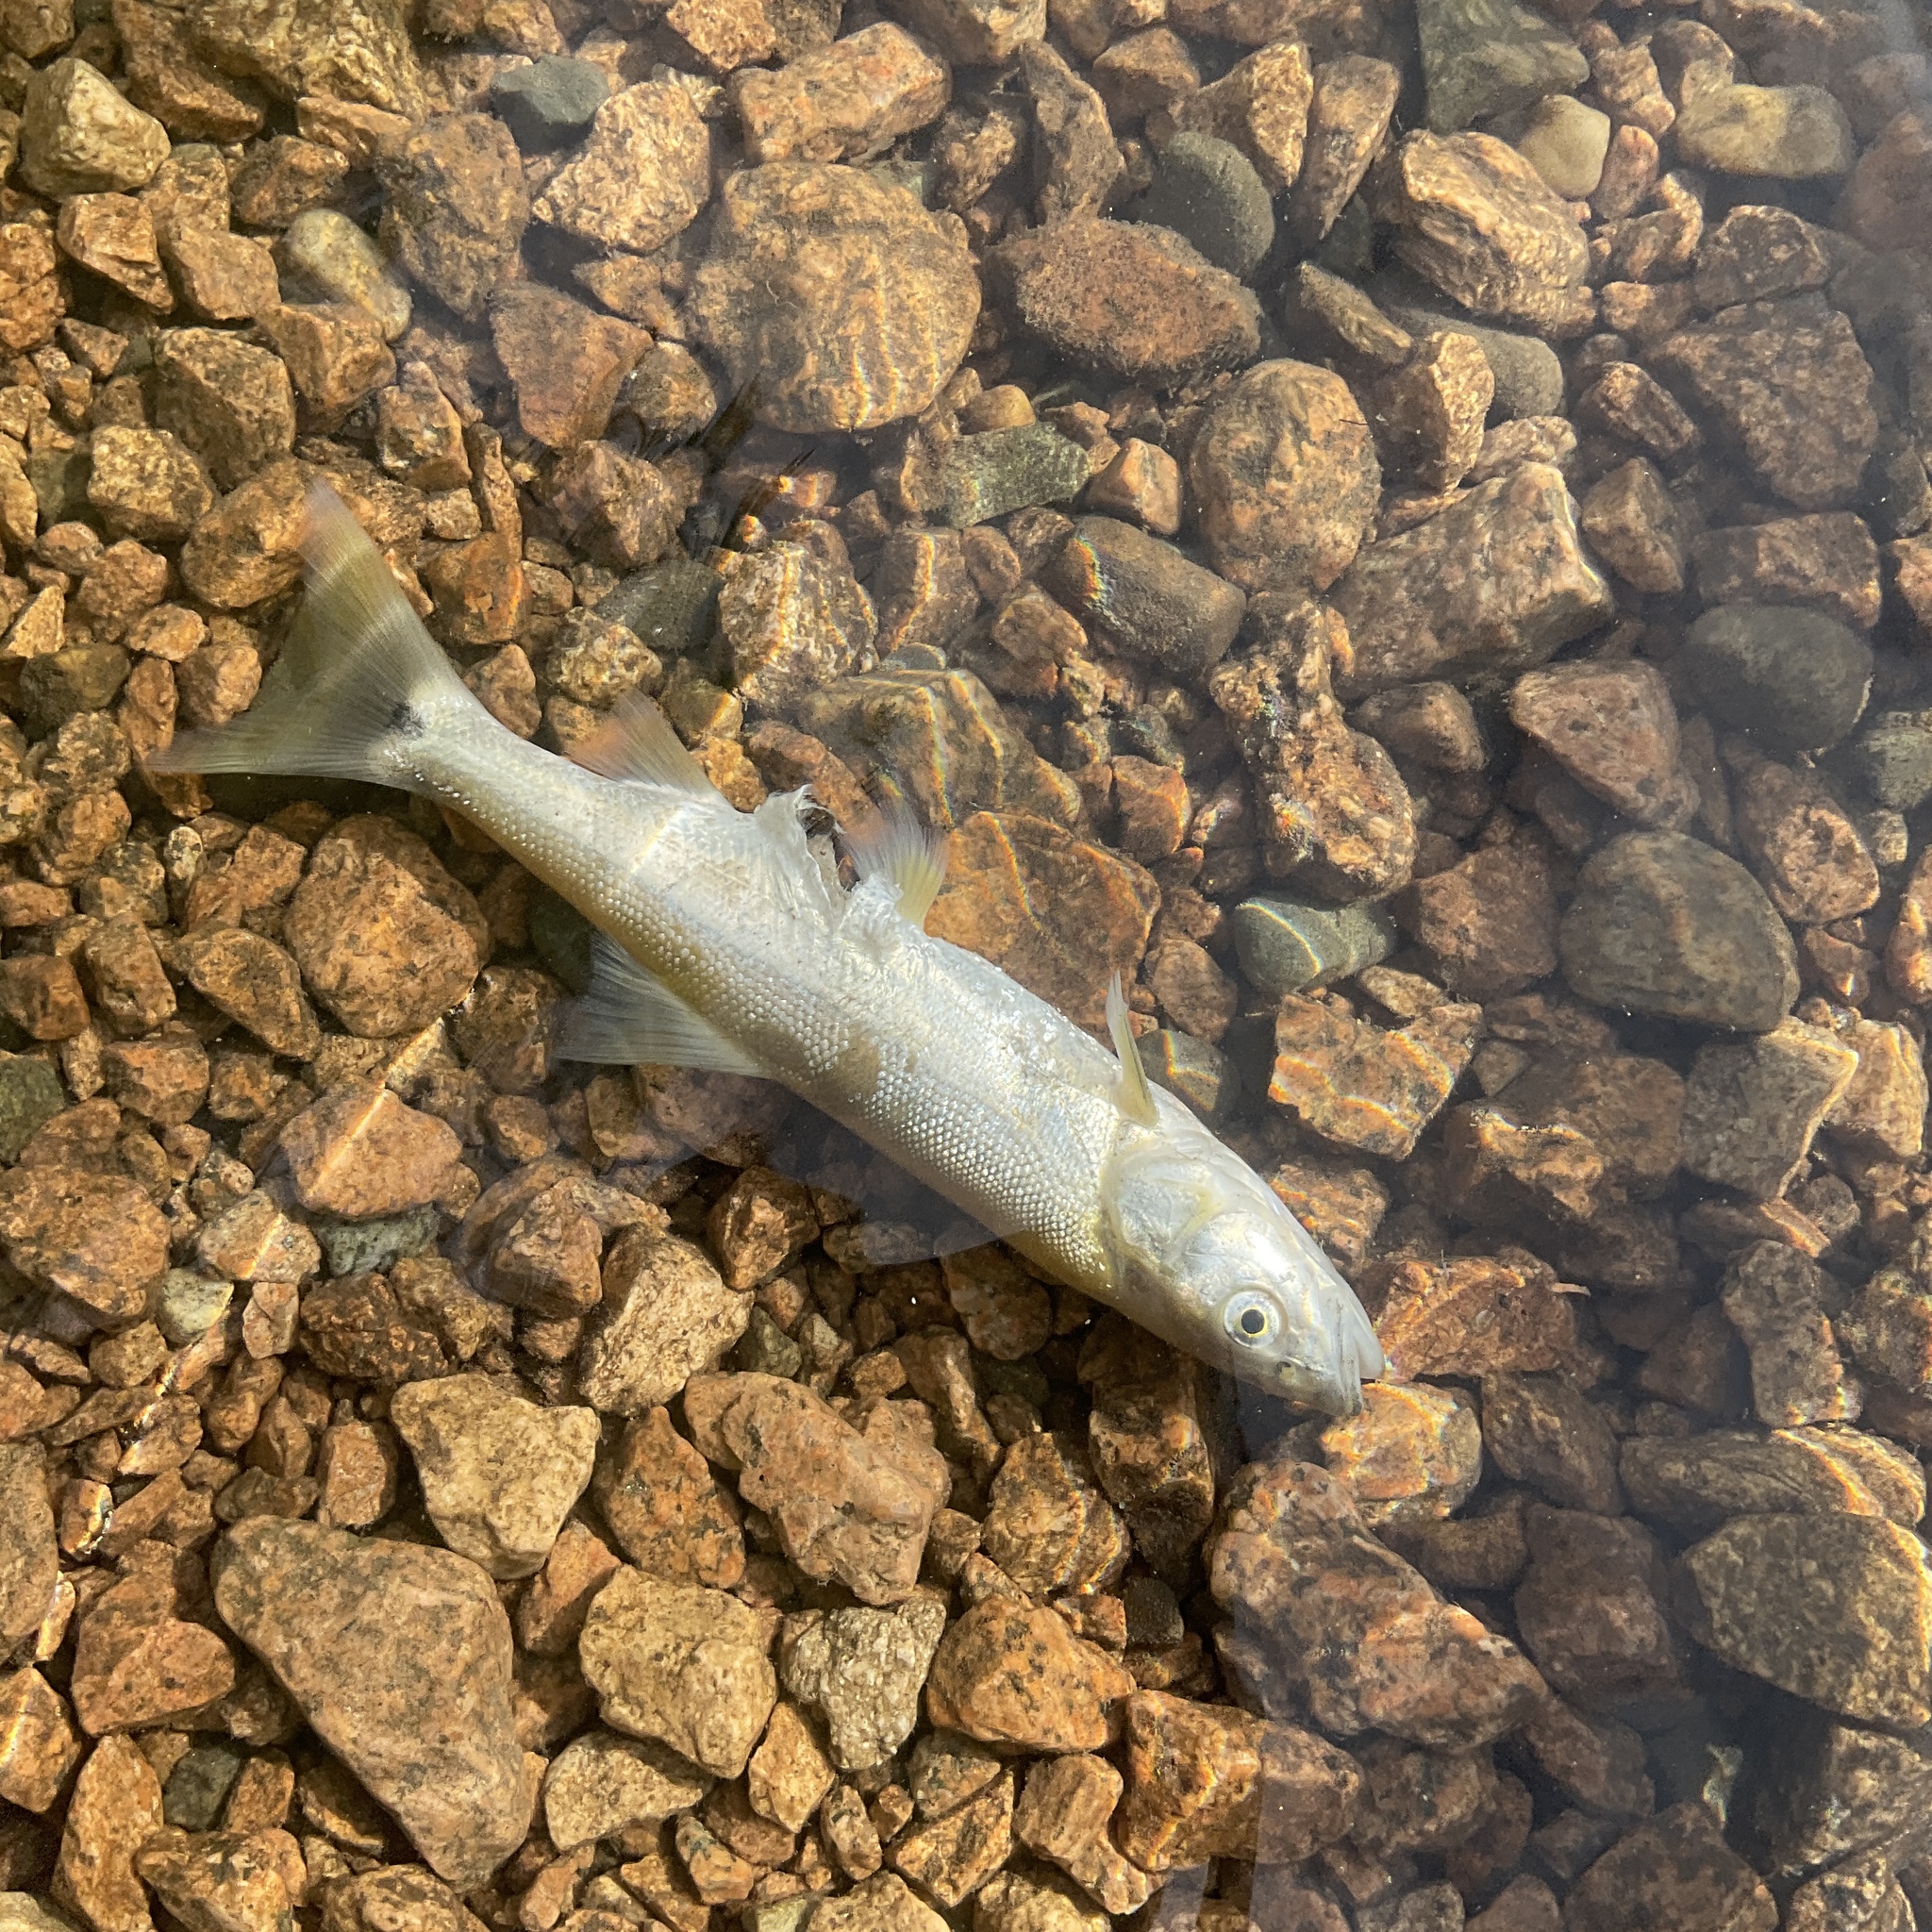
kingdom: Animalia
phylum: Chordata
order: Cypriniformes
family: Cyprinidae
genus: Ptychocheilus
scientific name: Ptychocheilus oregonensis
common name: Northern pikeminnow
